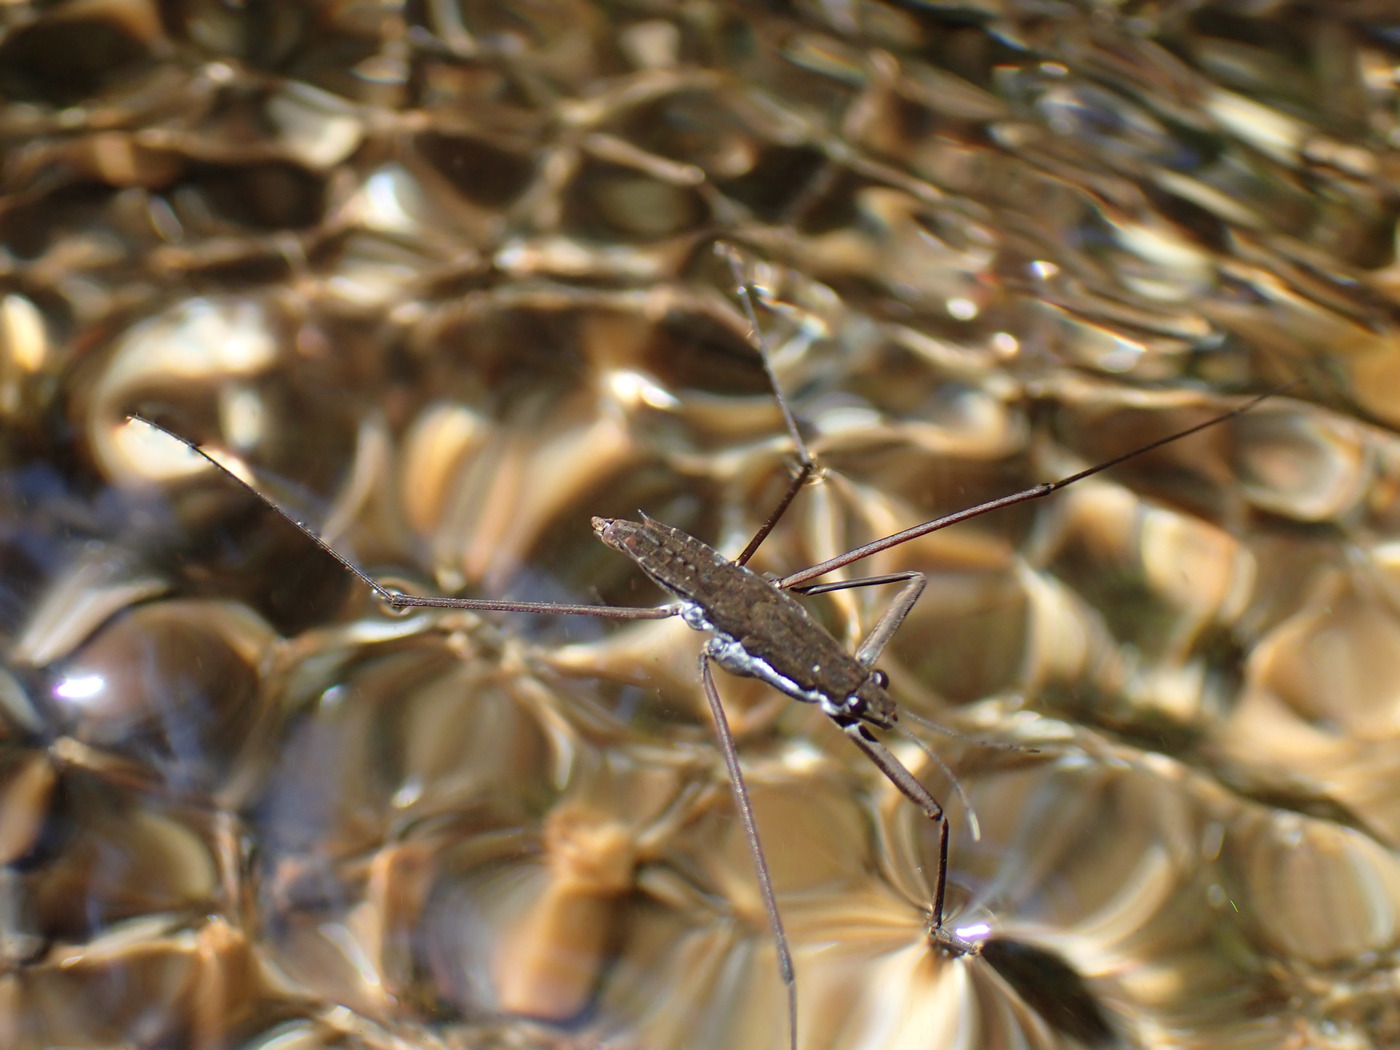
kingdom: Animalia
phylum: Arthropoda
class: Insecta
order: Hemiptera
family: Gerridae
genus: Aquarius
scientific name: Aquarius
